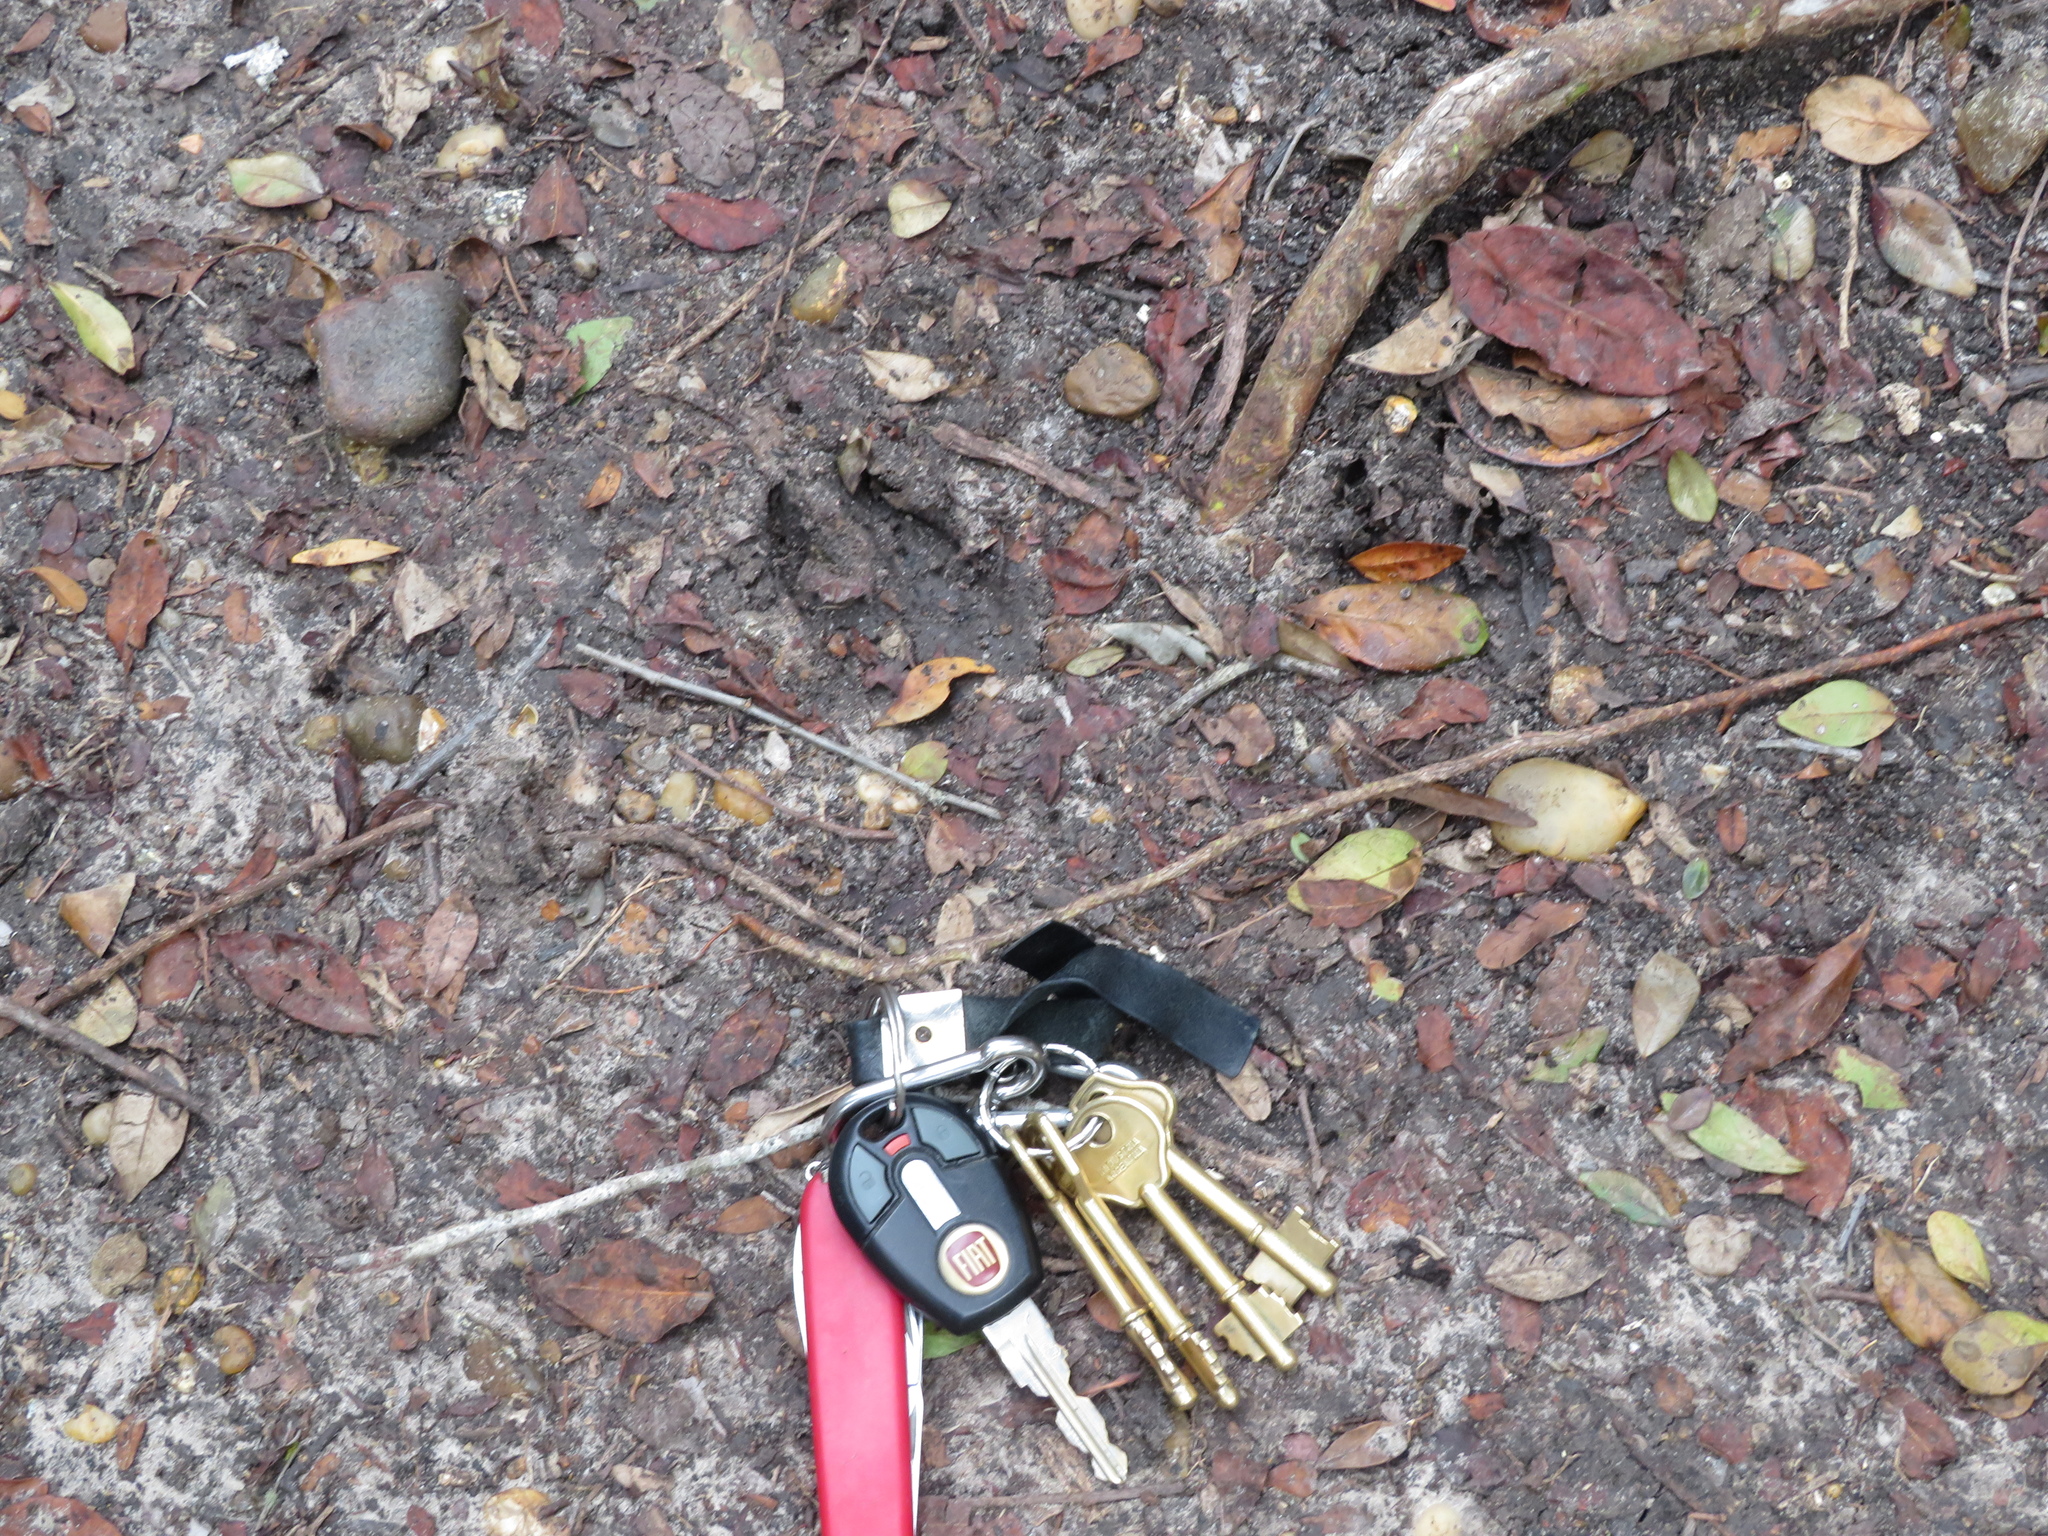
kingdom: Animalia
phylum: Chordata
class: Mammalia
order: Artiodactyla
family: Suidae
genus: Sus
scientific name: Sus scrofa
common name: Wild boar
